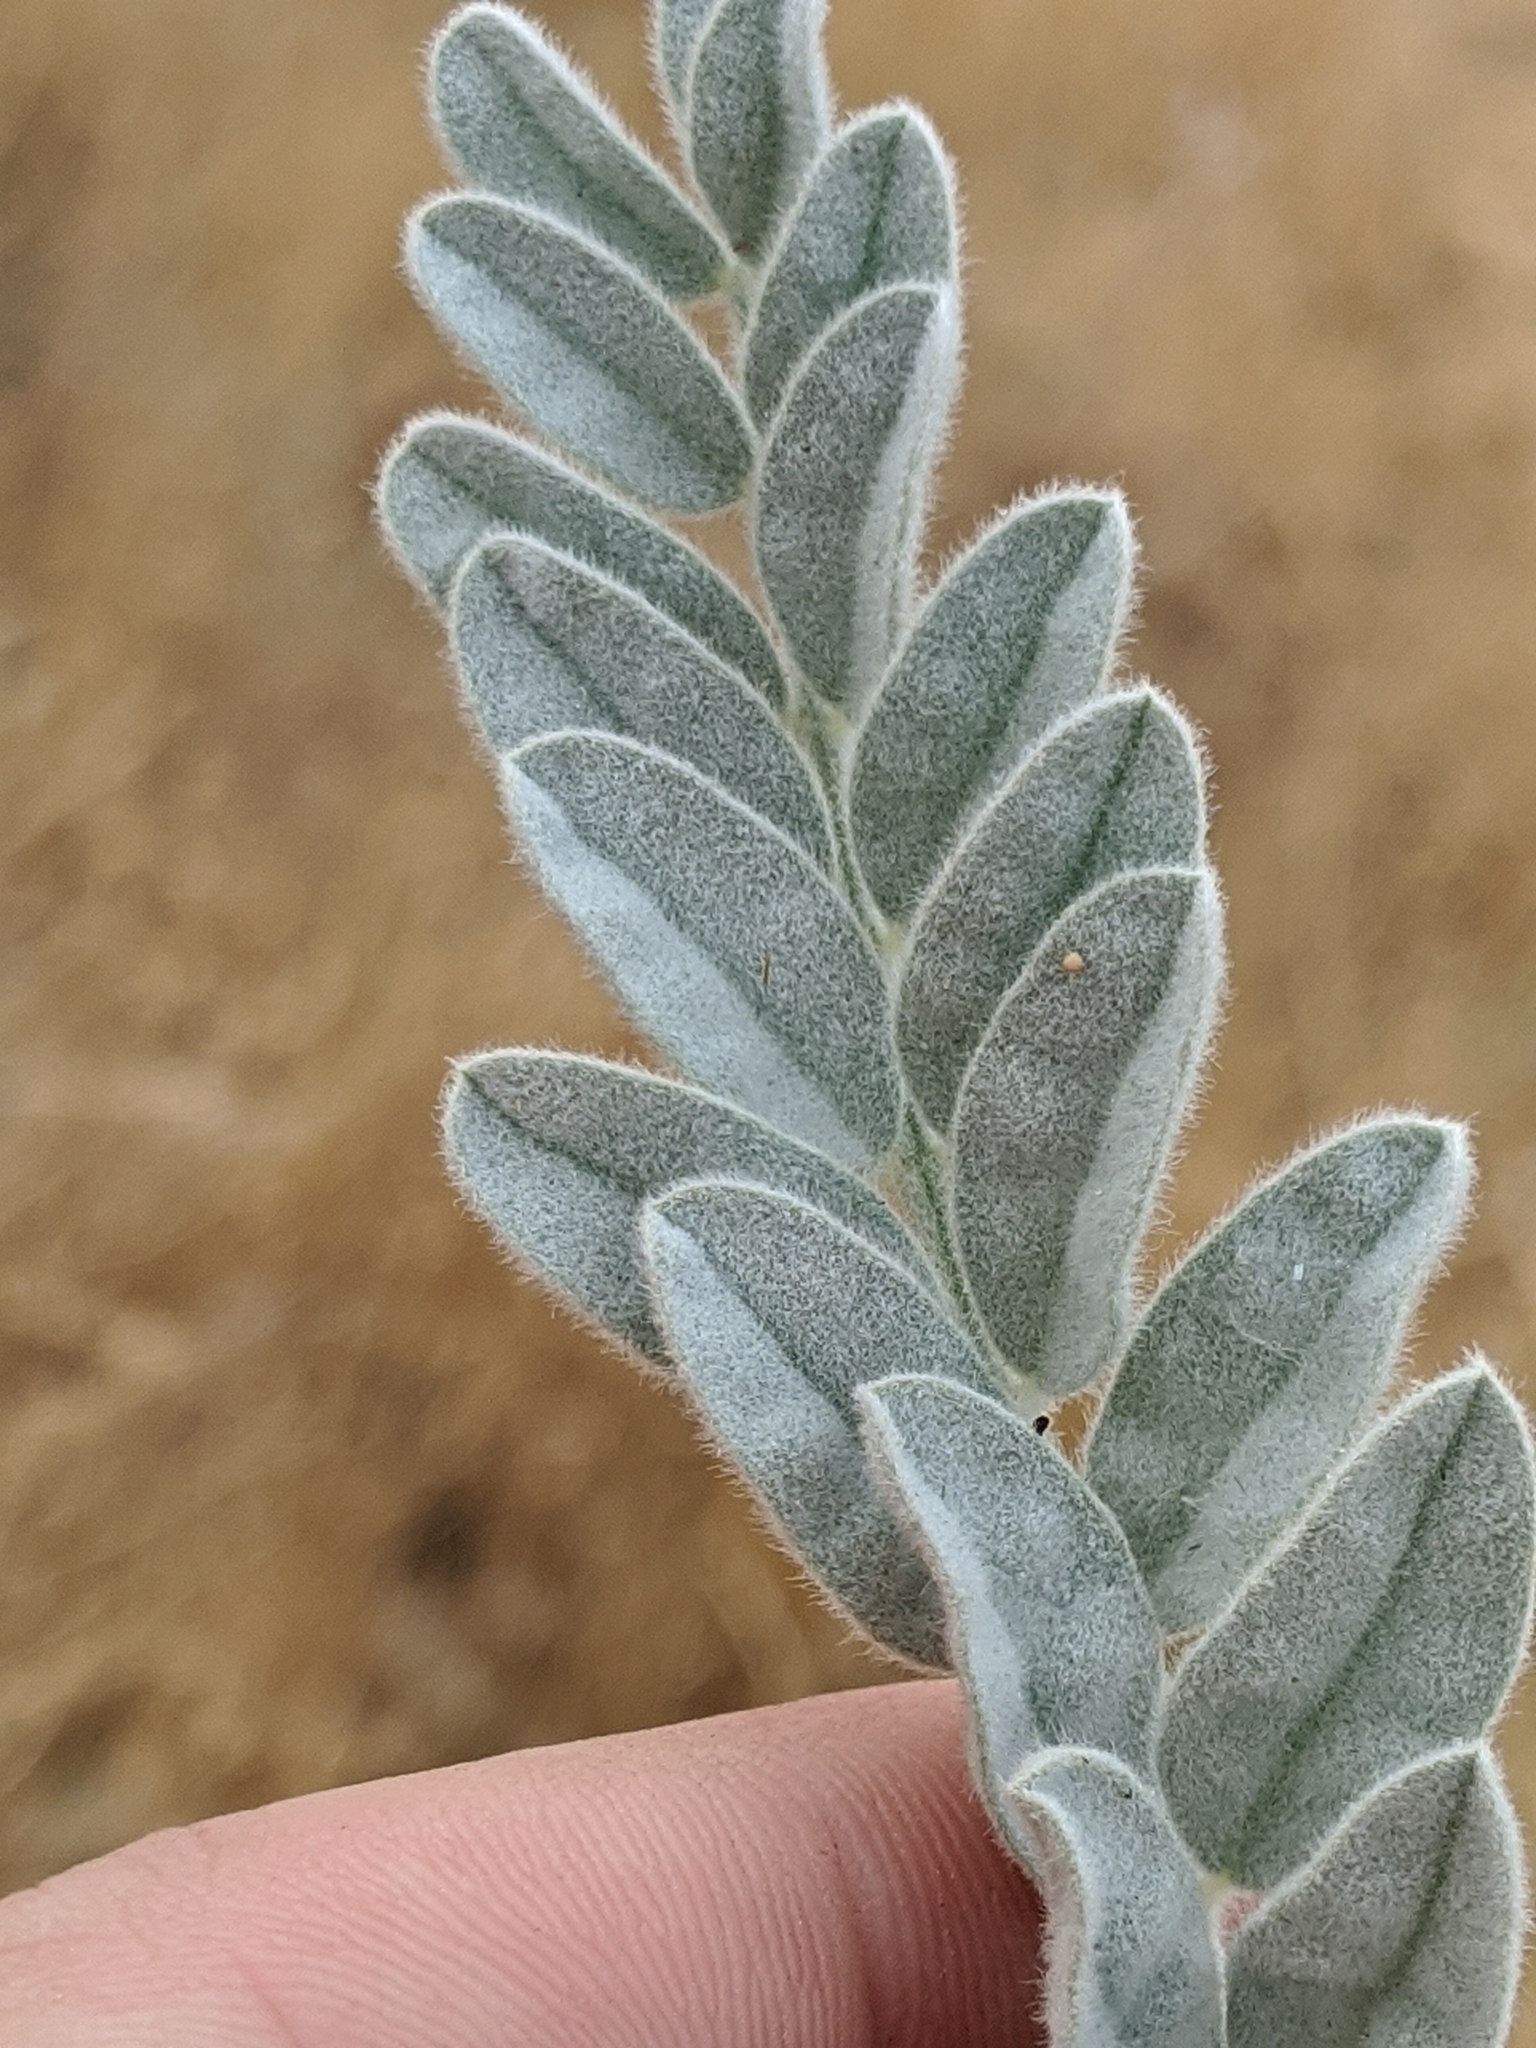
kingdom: Plantae
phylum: Tracheophyta
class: Magnoliopsida
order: Fabales
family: Fabaceae
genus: Astragalus
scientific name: Astragalus oxyphysus
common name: Stanislaus milk-vetch
